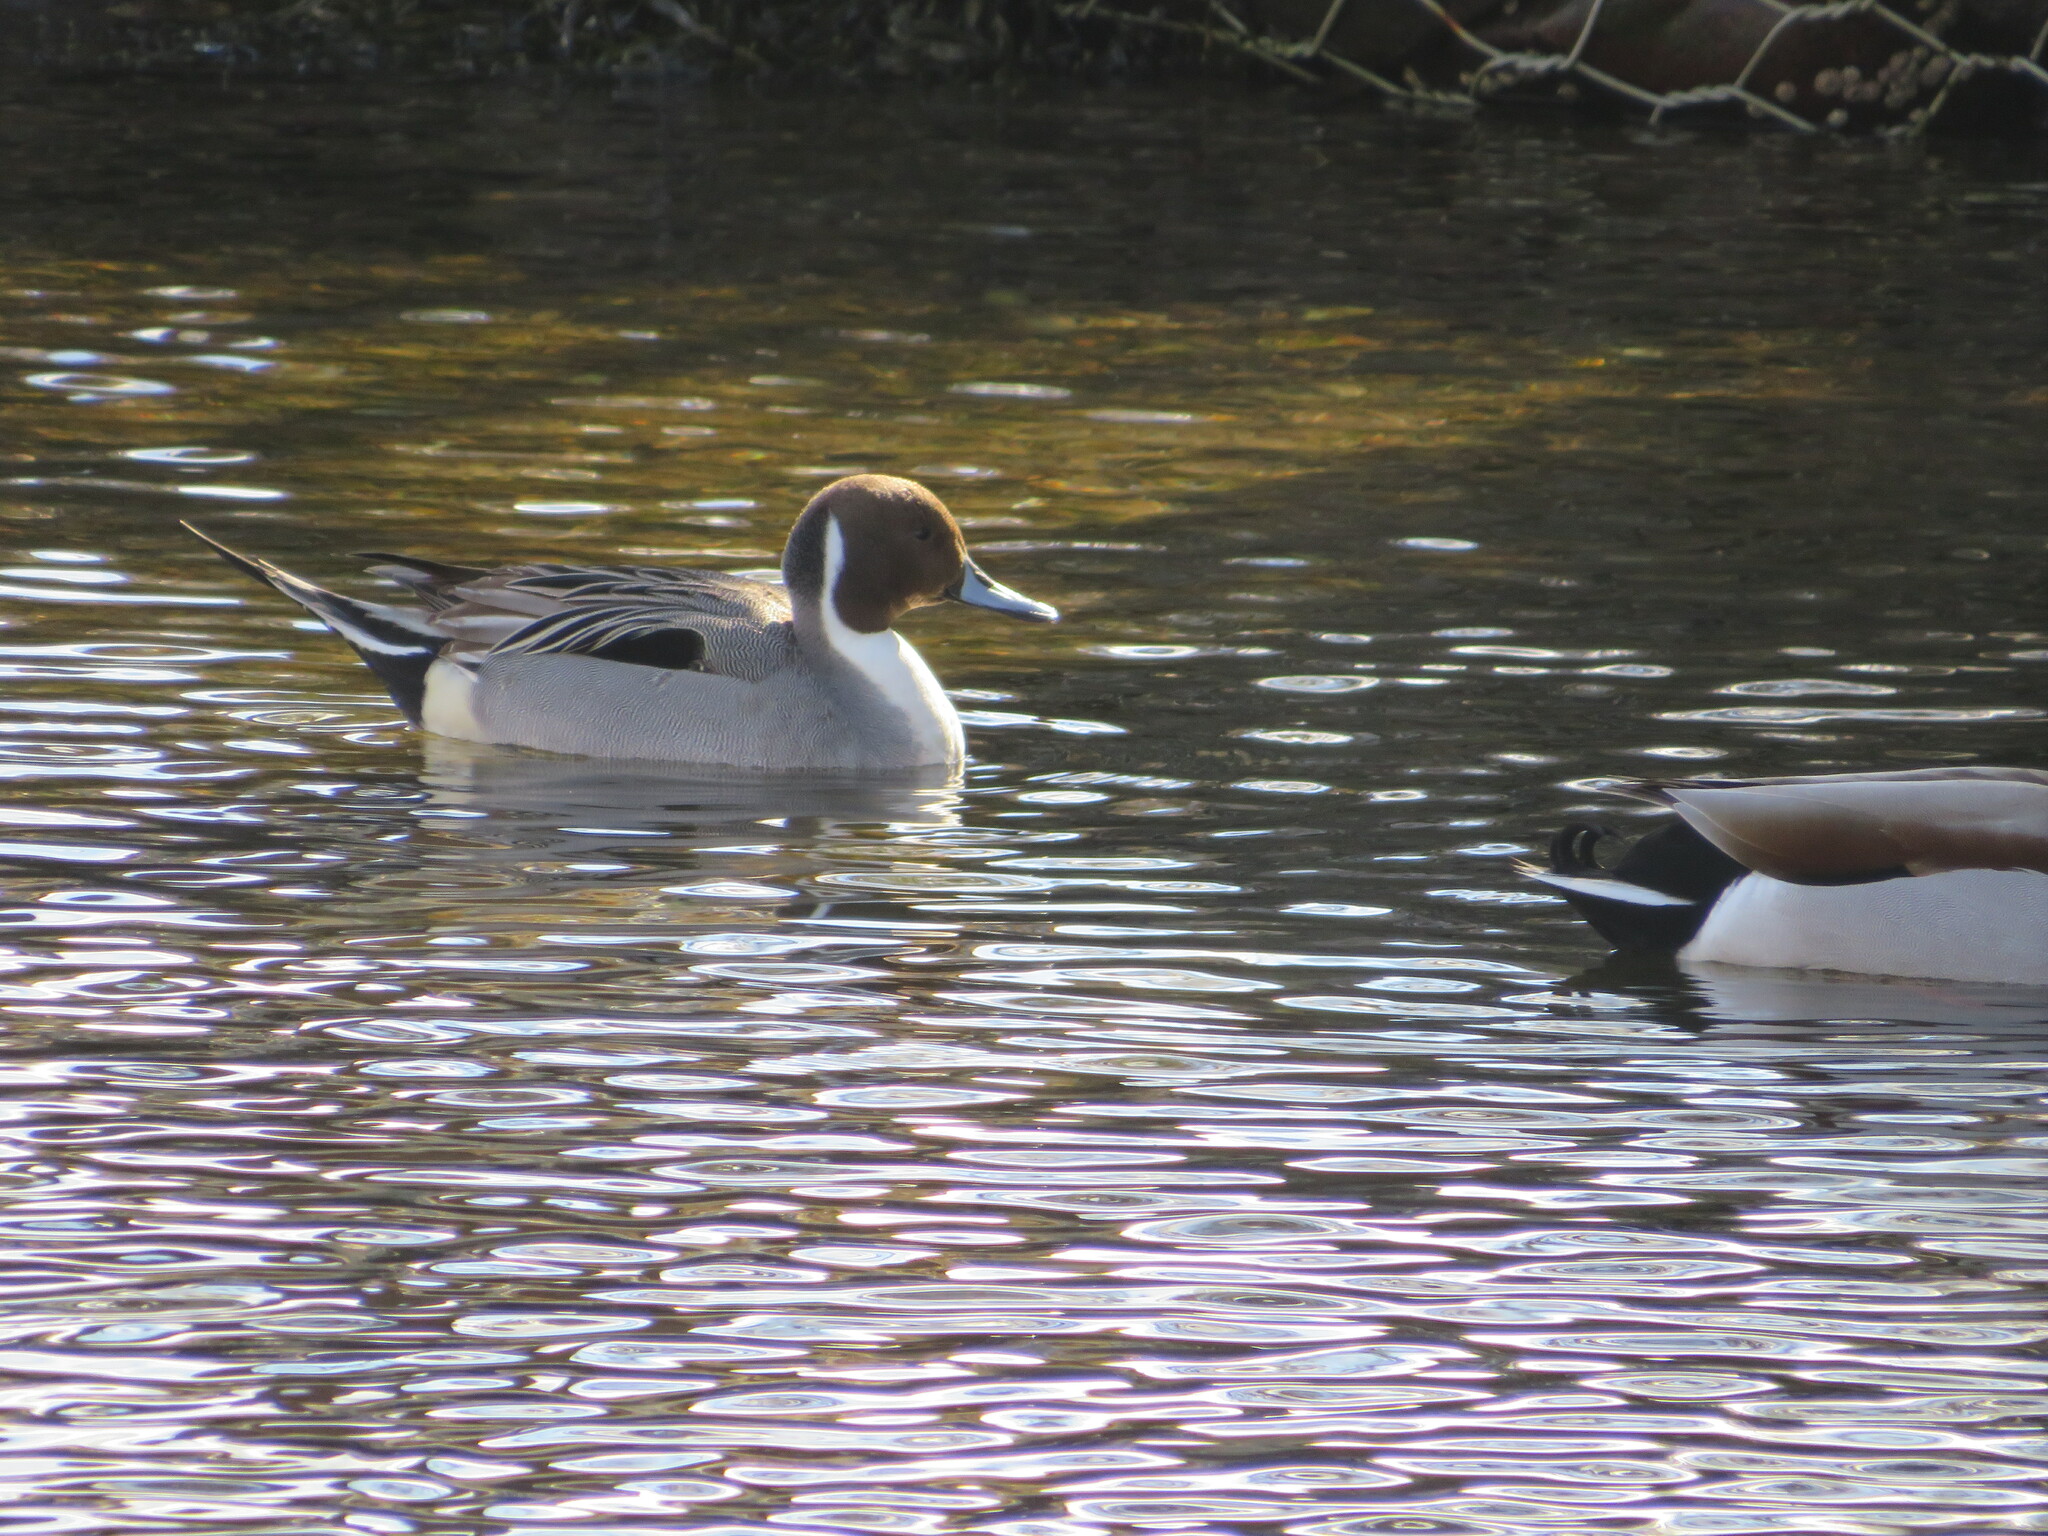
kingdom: Animalia
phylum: Chordata
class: Aves
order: Anseriformes
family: Anatidae
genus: Anas
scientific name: Anas acuta
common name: Northern pintail
